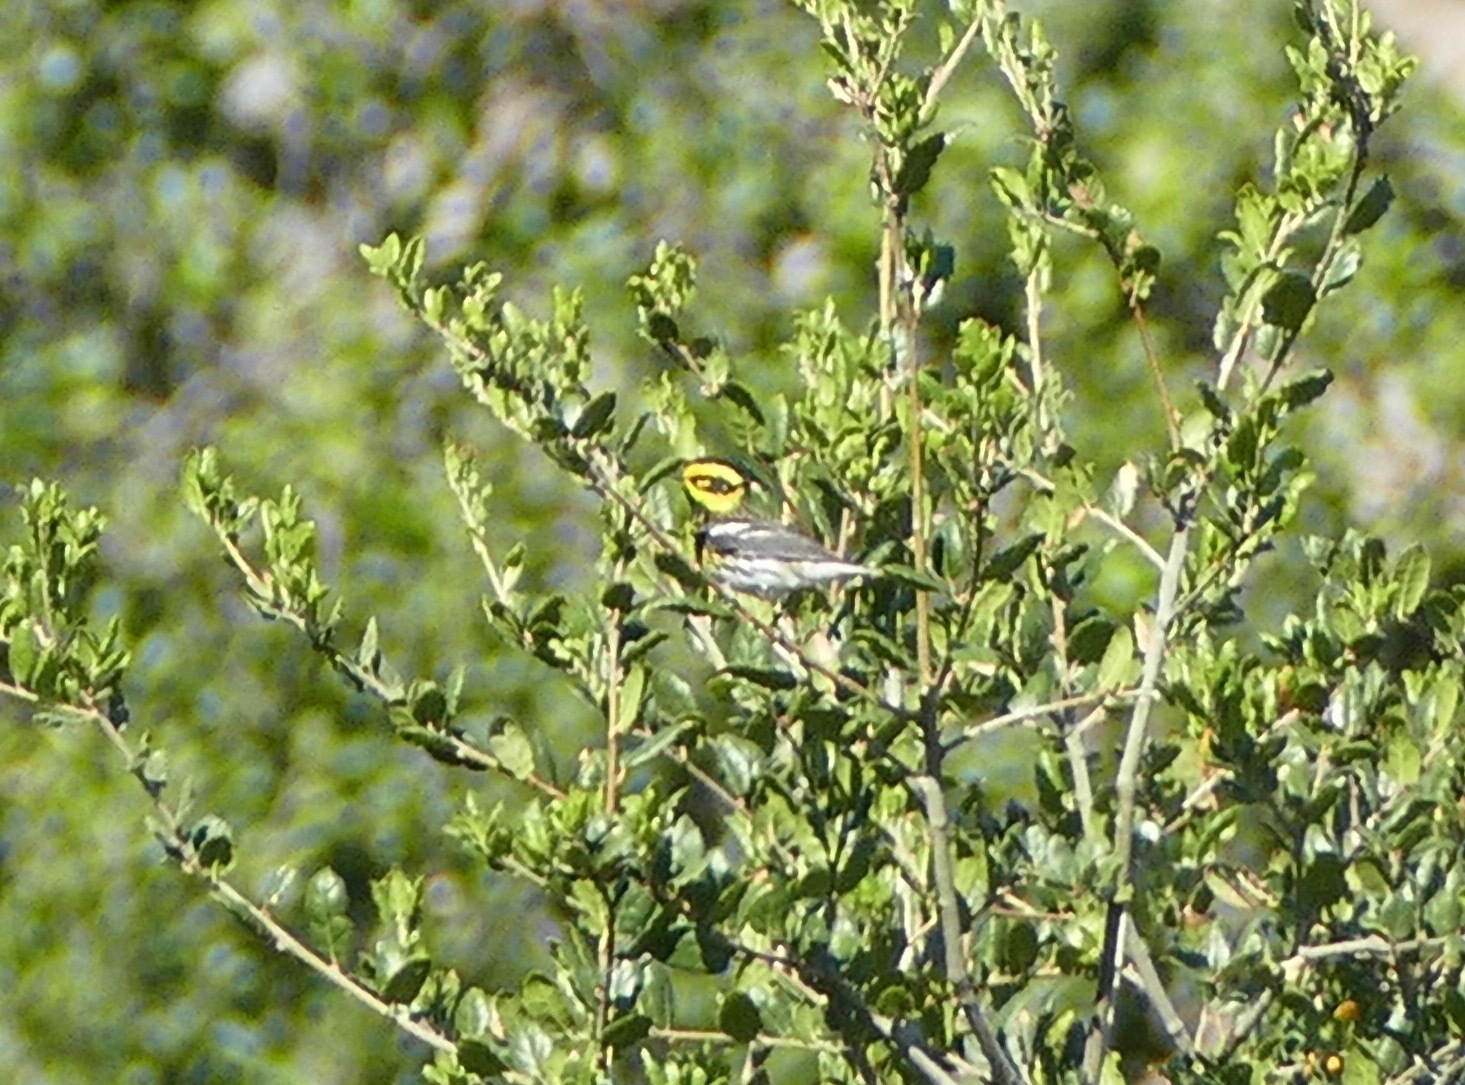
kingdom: Animalia
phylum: Chordata
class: Aves
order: Passeriformes
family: Parulidae
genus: Setophaga
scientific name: Setophaga townsendi
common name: Townsend's warbler
